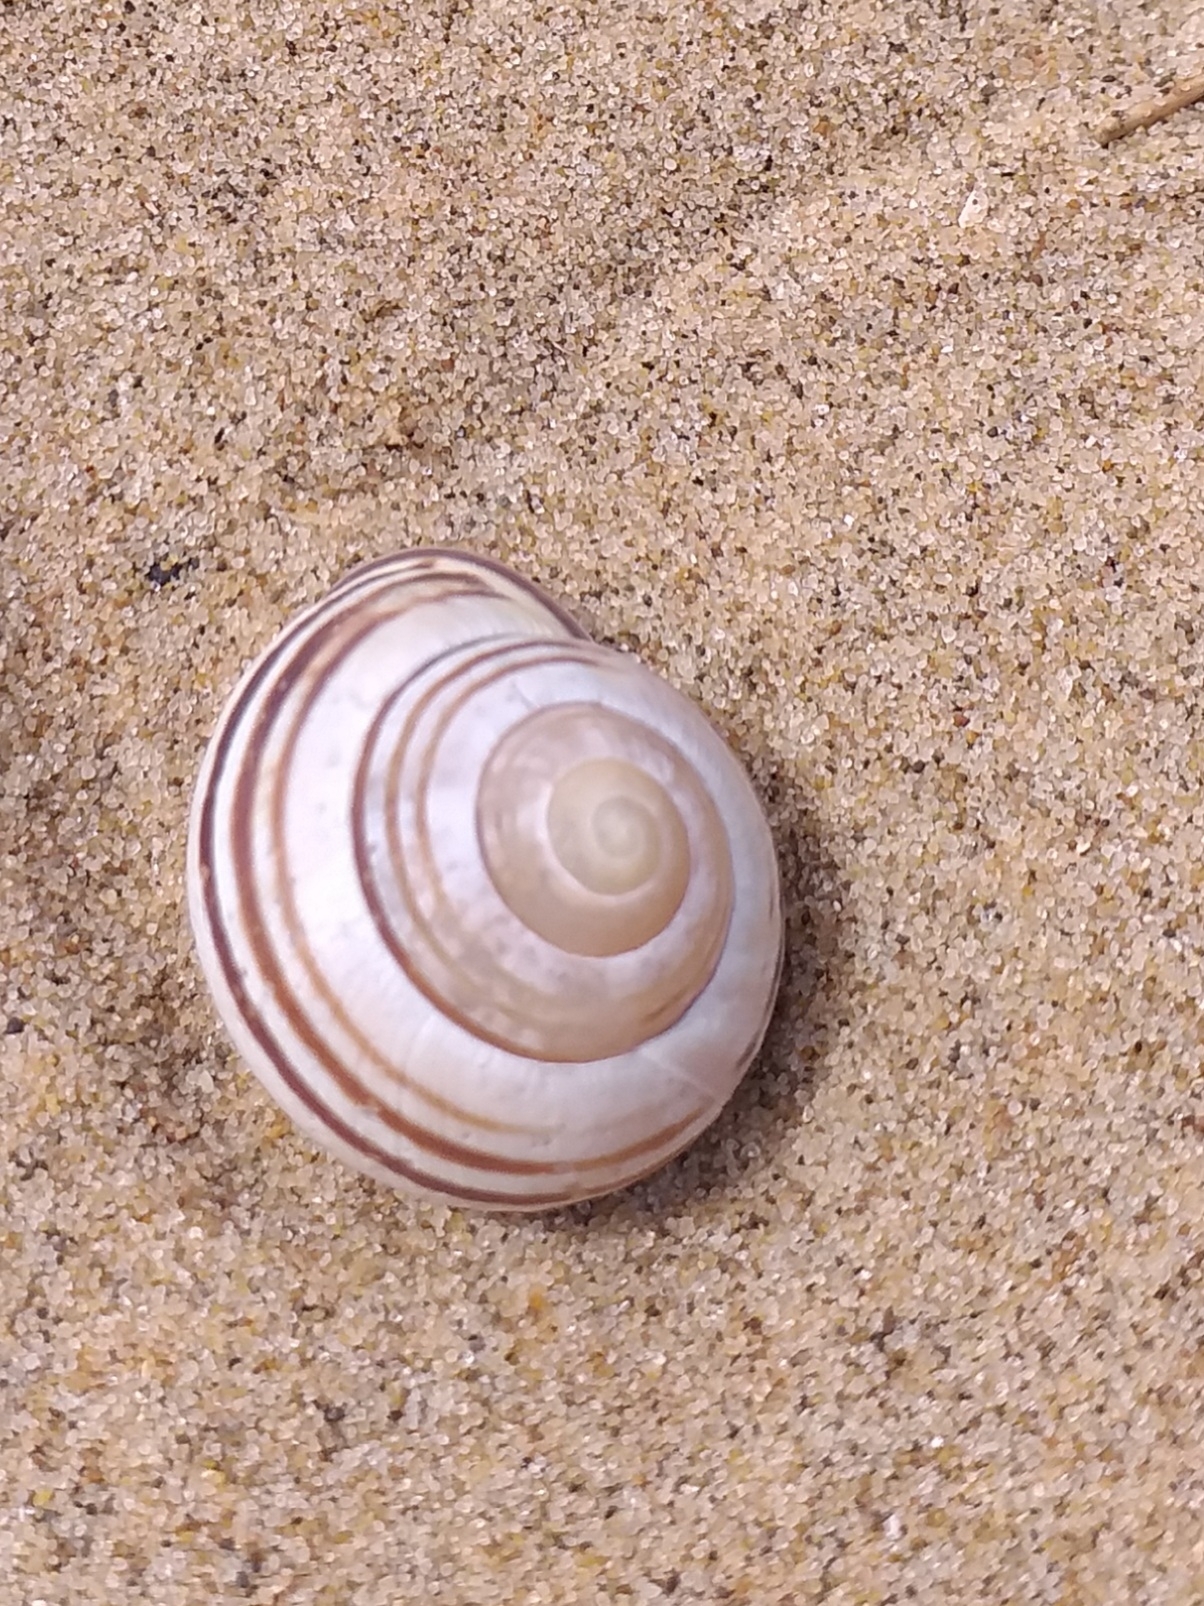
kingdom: Animalia
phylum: Mollusca
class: Gastropoda
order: Stylommatophora
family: Helicidae
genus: Cepaea
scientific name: Cepaea nemoralis
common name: Grovesnail
